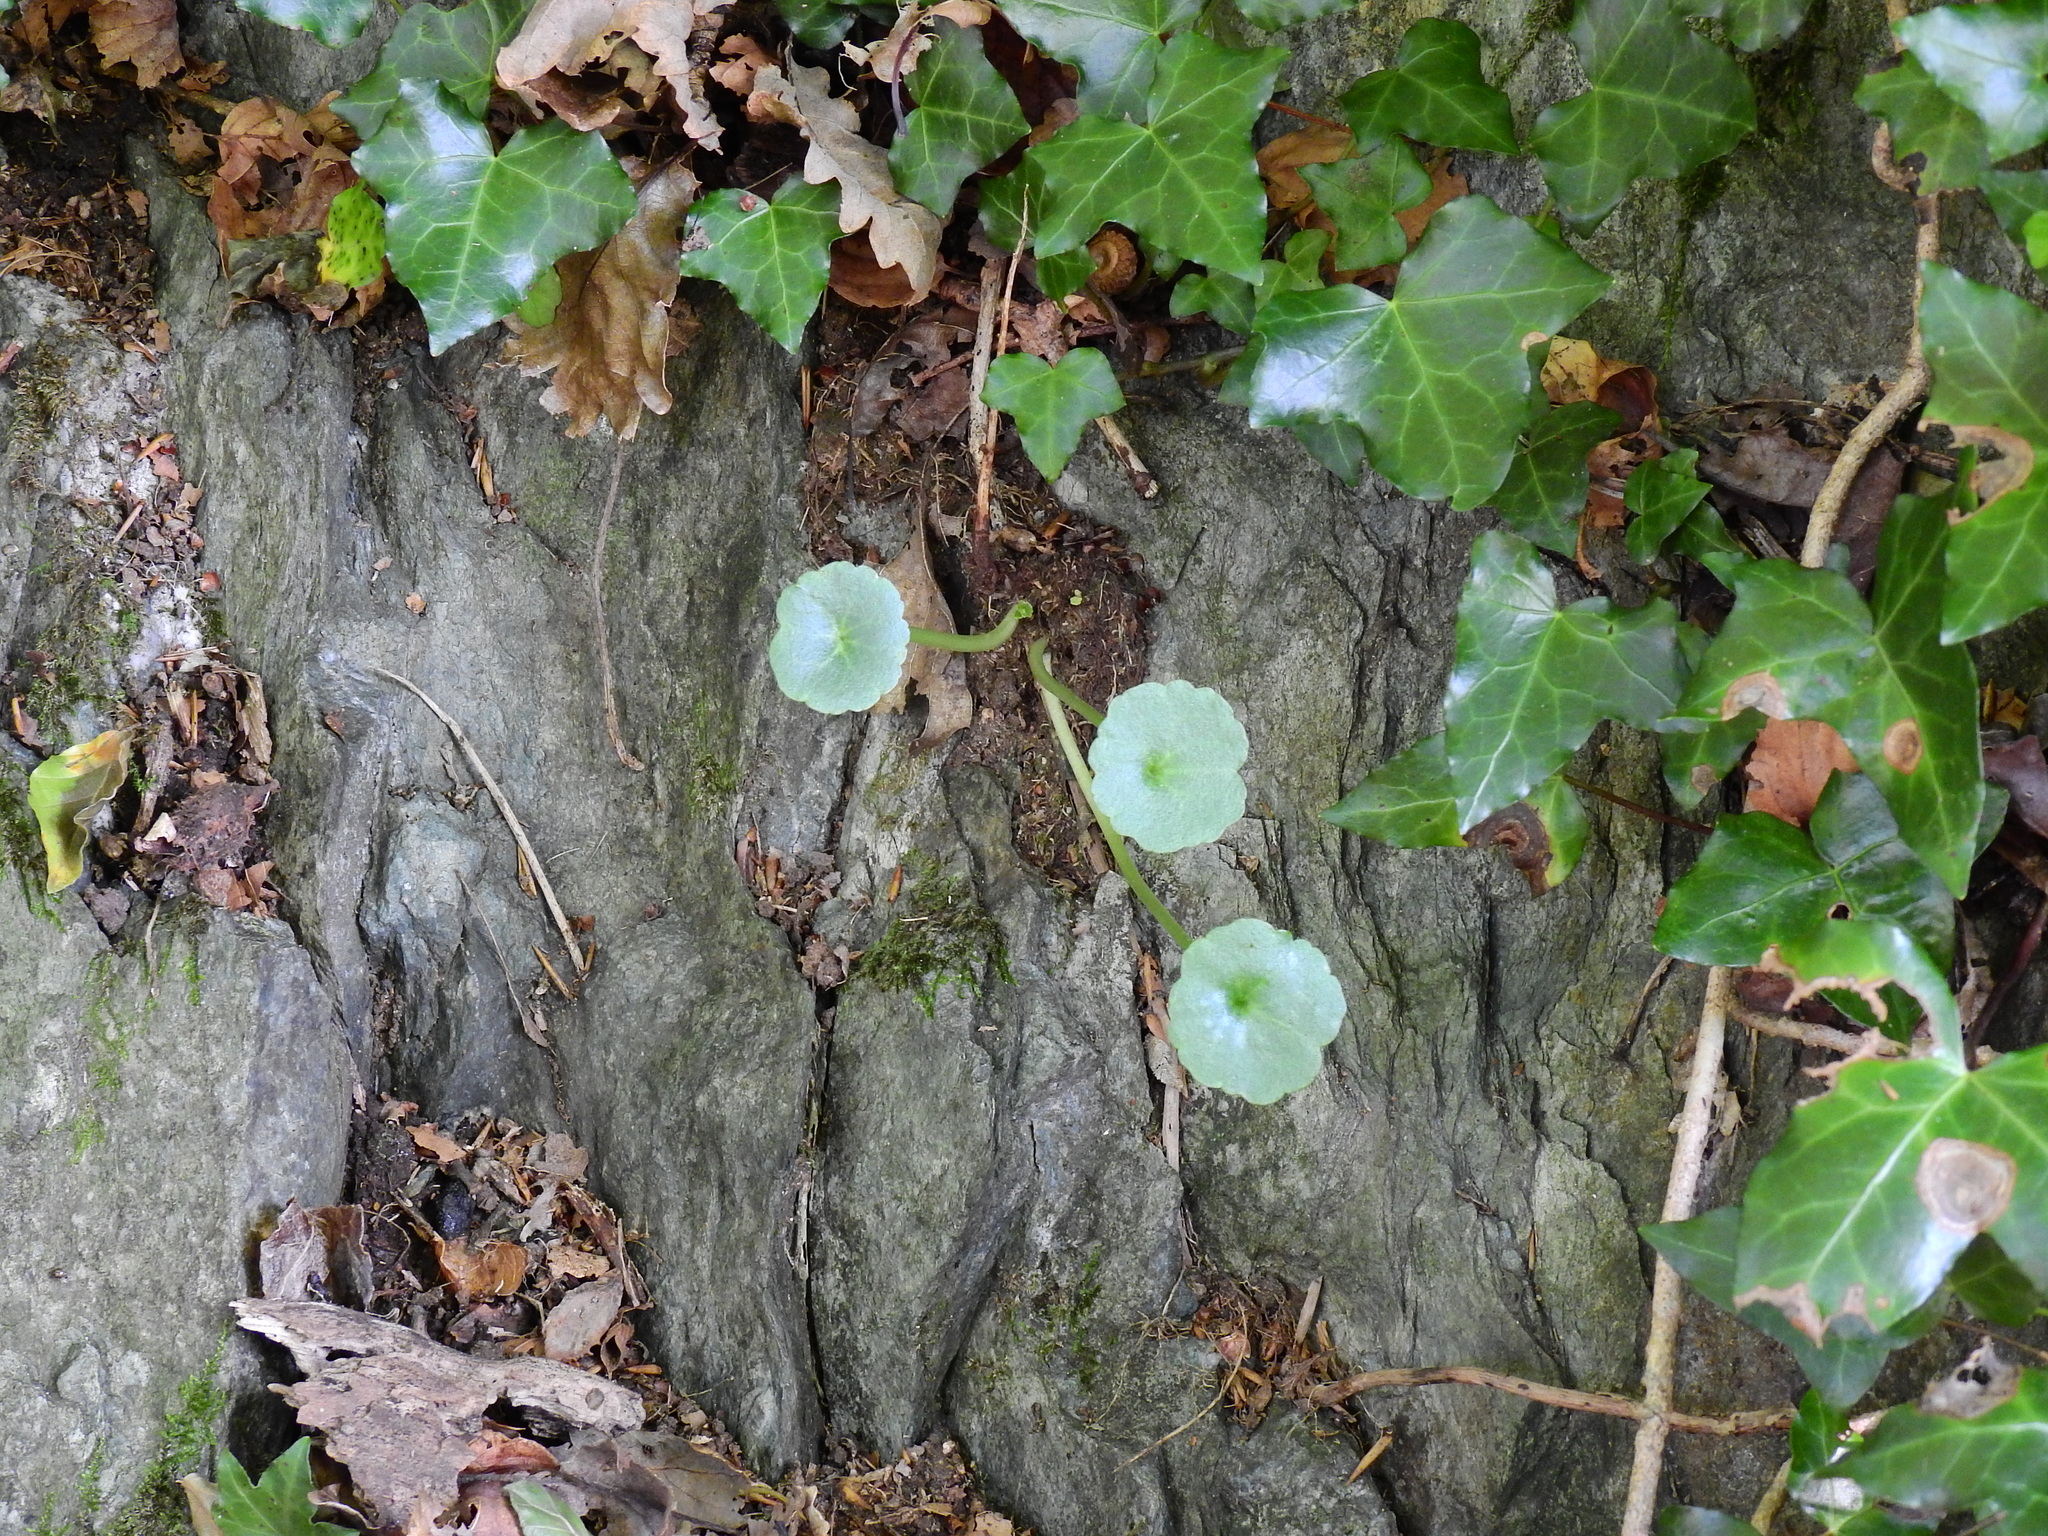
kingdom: Plantae
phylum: Tracheophyta
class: Magnoliopsida
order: Saxifragales
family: Crassulaceae
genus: Umbilicus
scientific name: Umbilicus rupestris
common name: Navelwort
